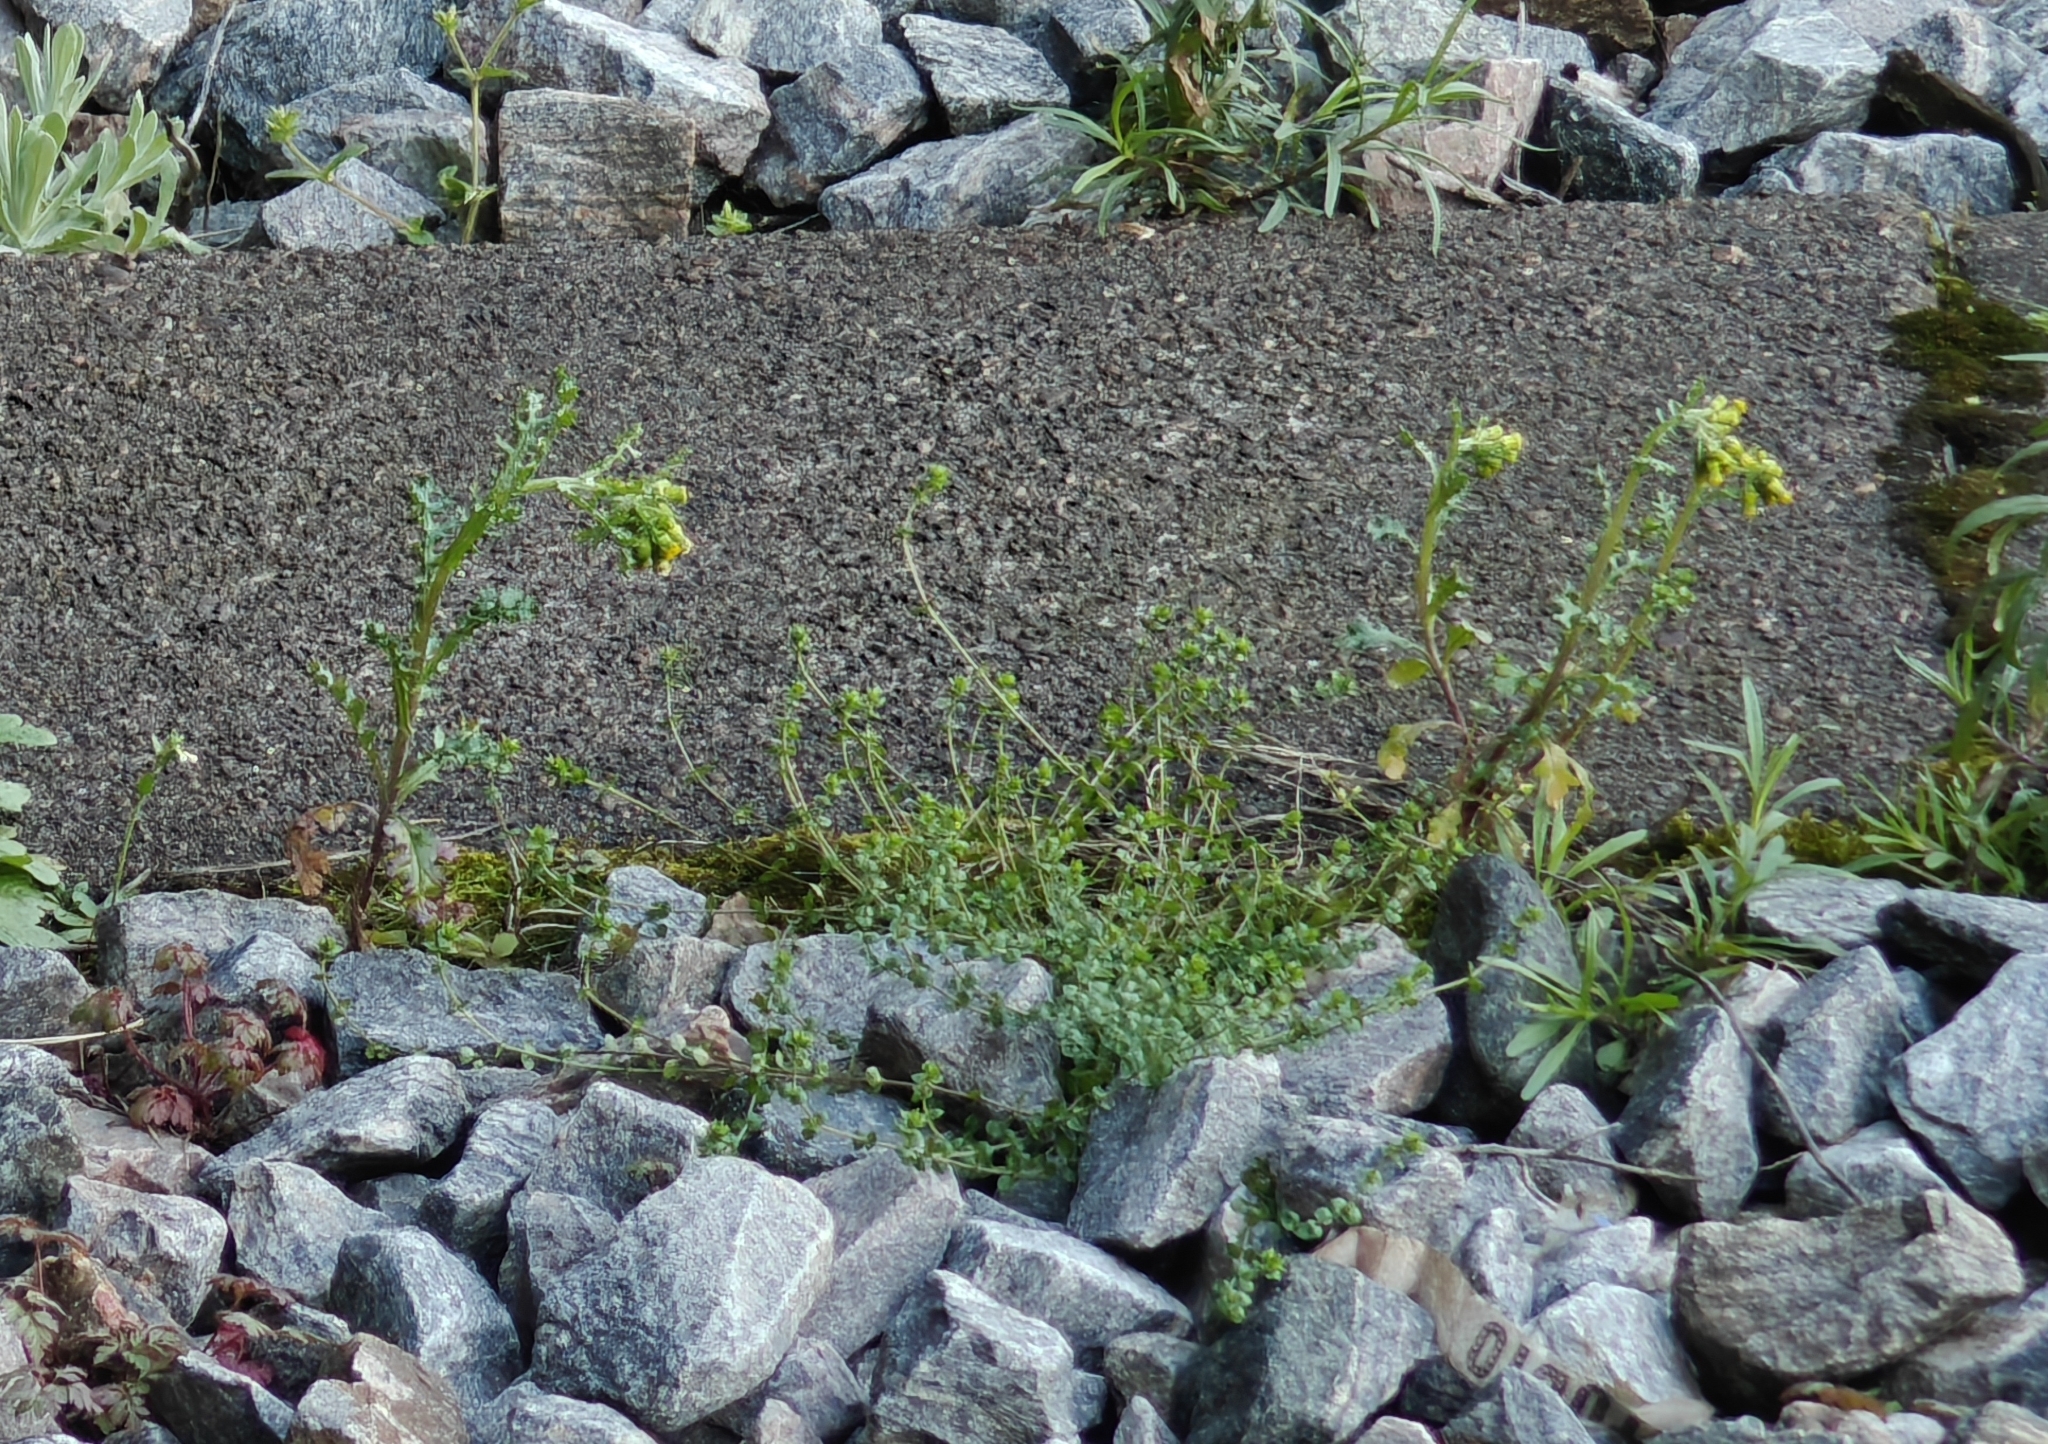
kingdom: Plantae
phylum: Tracheophyta
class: Magnoliopsida
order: Asterales
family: Asteraceae
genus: Senecio
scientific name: Senecio vulgaris
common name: Old-man-in-the-spring
